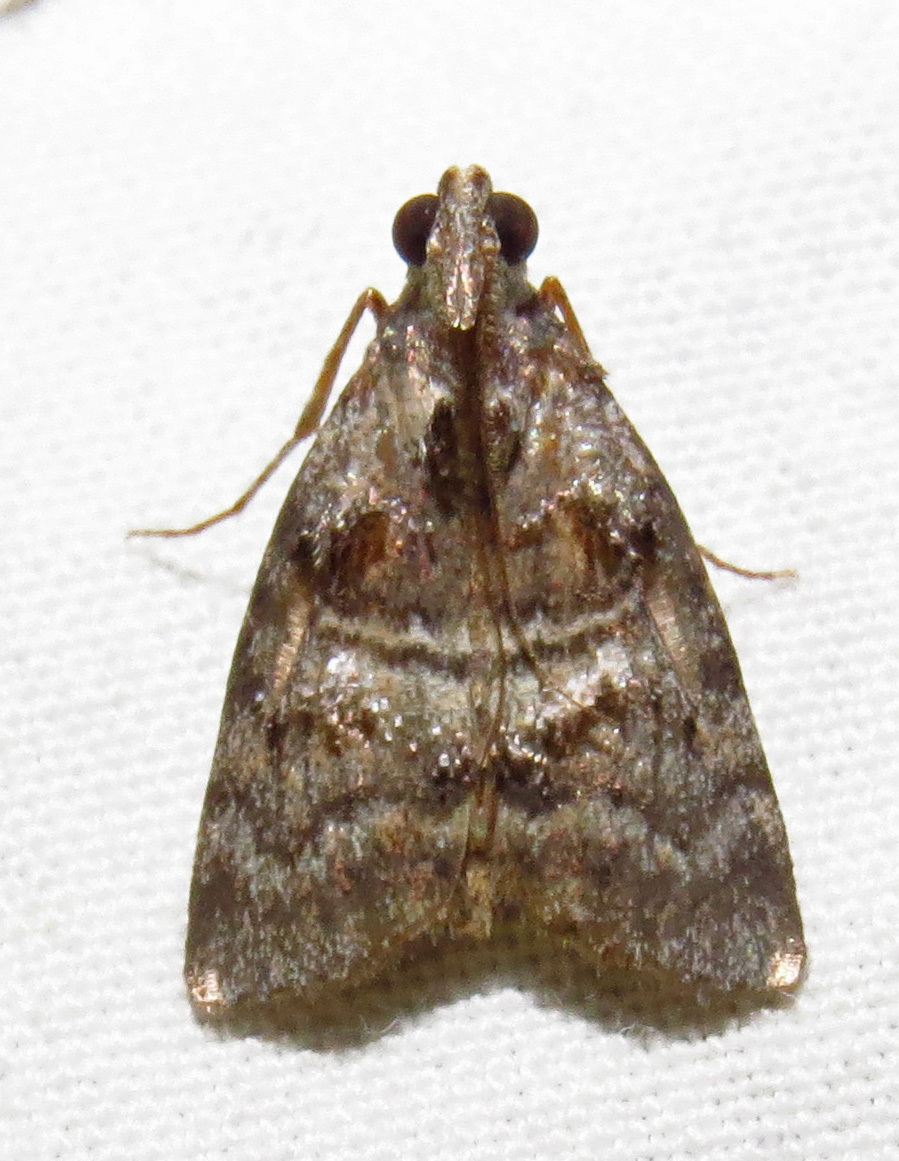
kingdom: Animalia
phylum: Arthropoda
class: Insecta
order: Lepidoptera
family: Pyralidae
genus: Pococera
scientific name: Pococera asperatella
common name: Maple webworm moth
